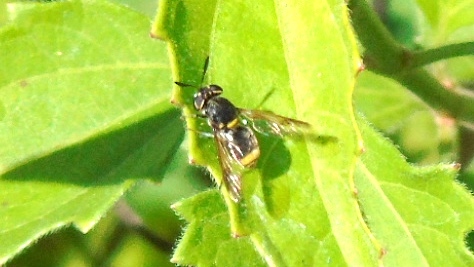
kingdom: Animalia
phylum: Arthropoda
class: Insecta
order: Diptera
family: Stratiomyidae
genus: Hoplitimyia
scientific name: Hoplitimyia
